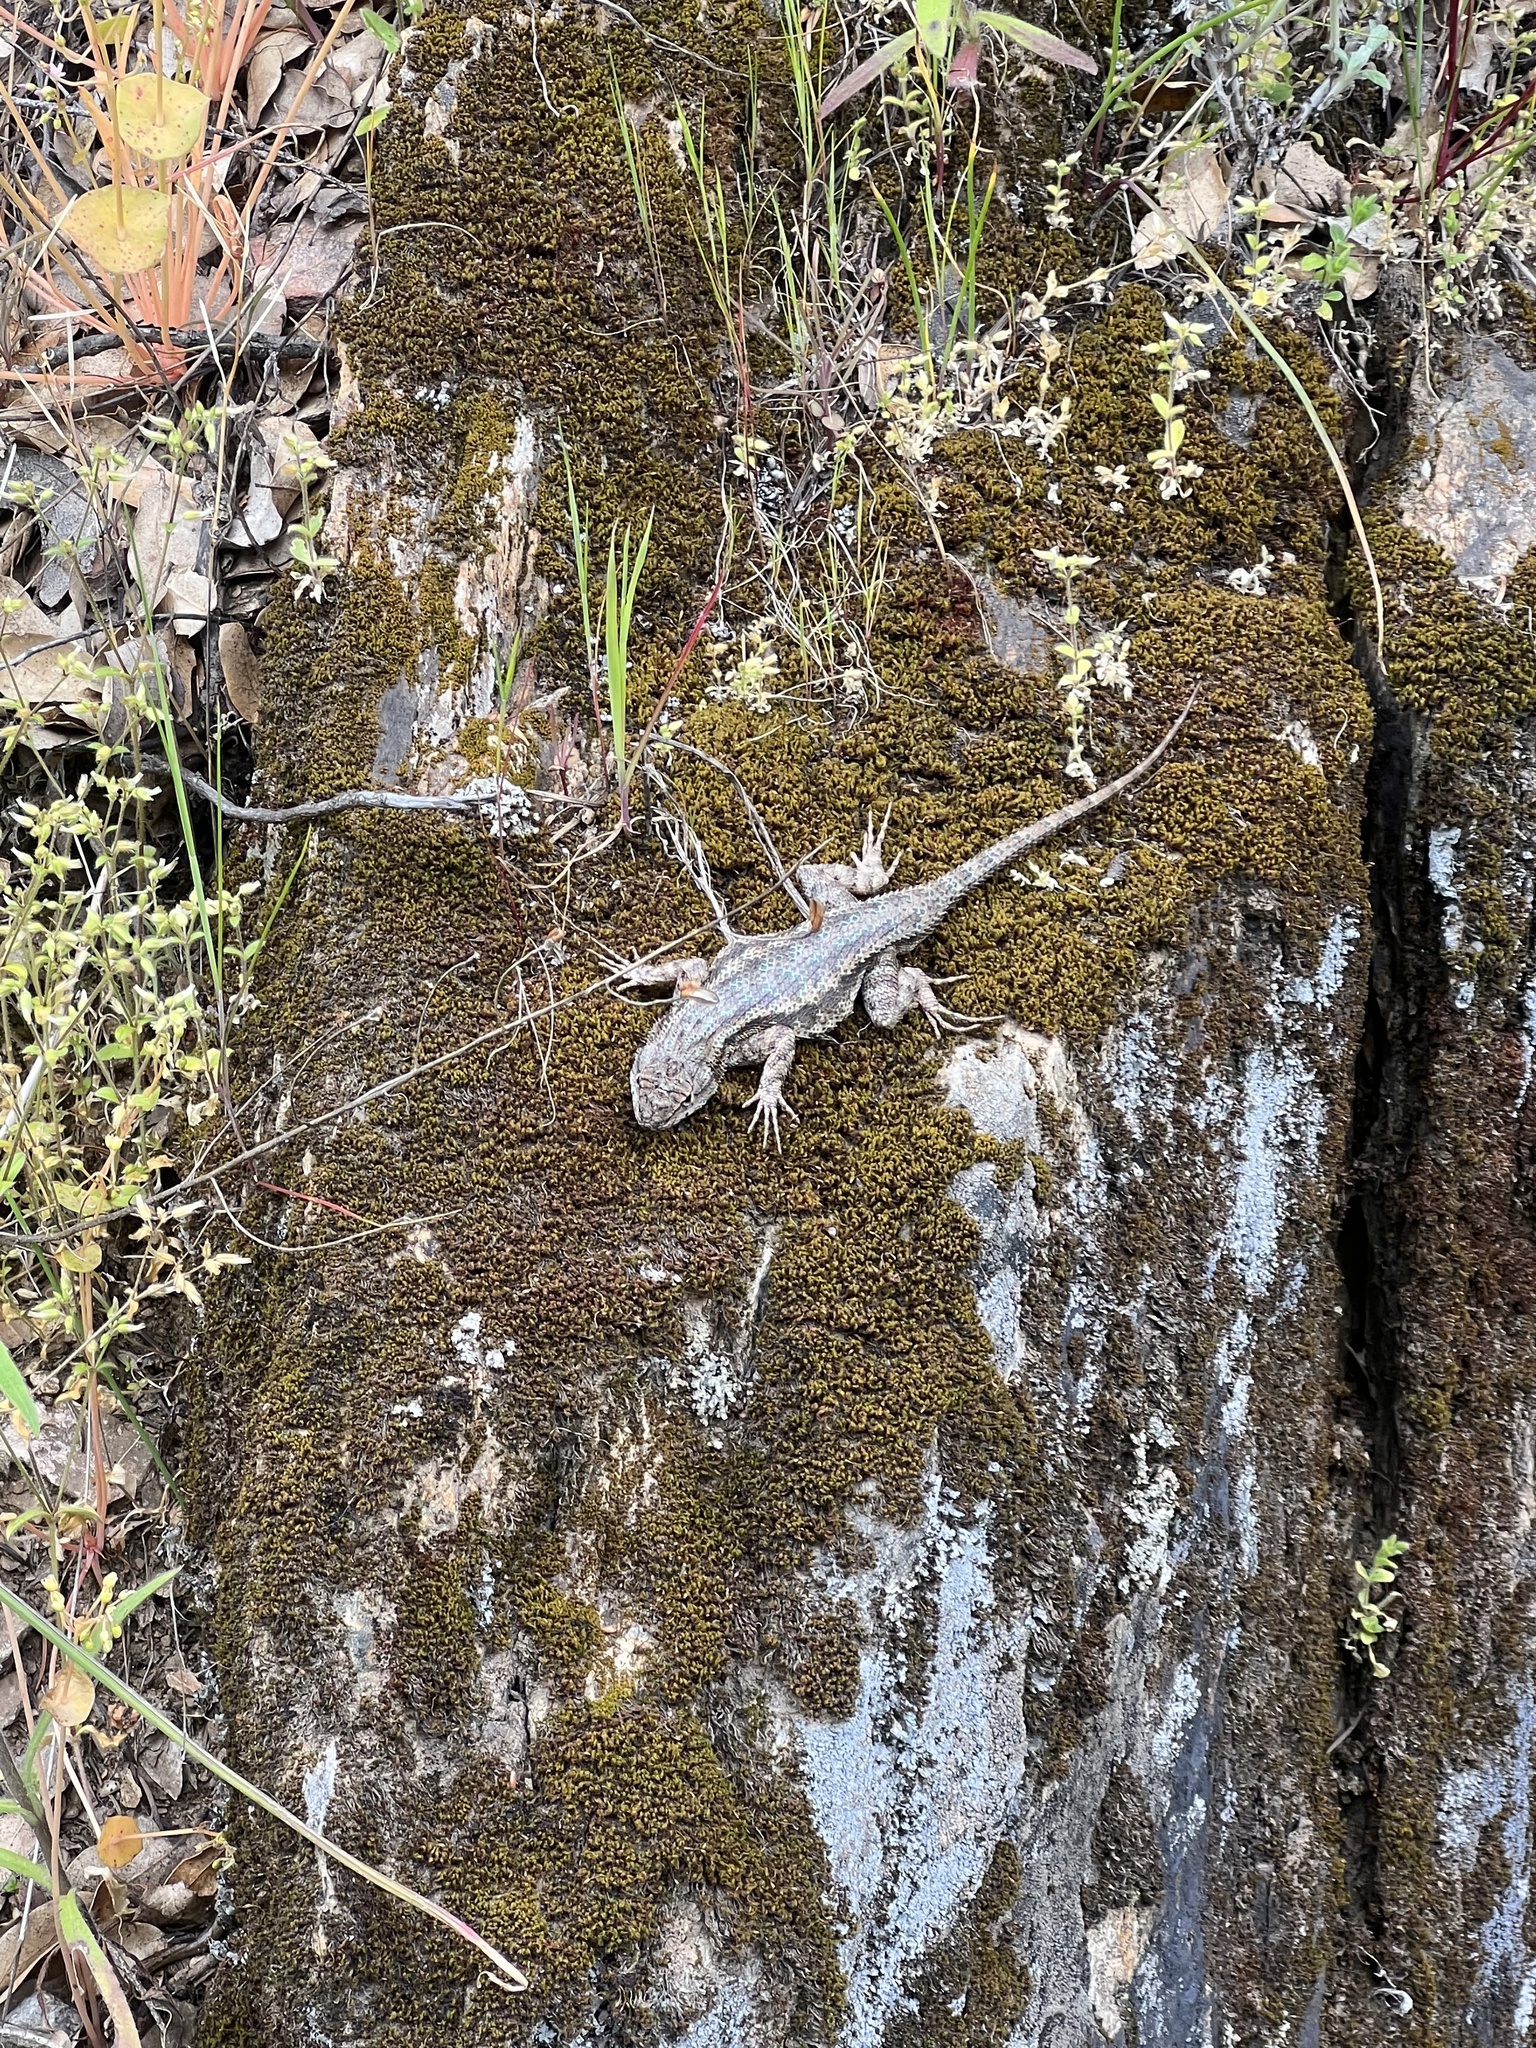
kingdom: Animalia
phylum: Chordata
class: Squamata
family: Phrynosomatidae
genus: Sceloporus
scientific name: Sceloporus occidentalis
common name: Western fence lizard
